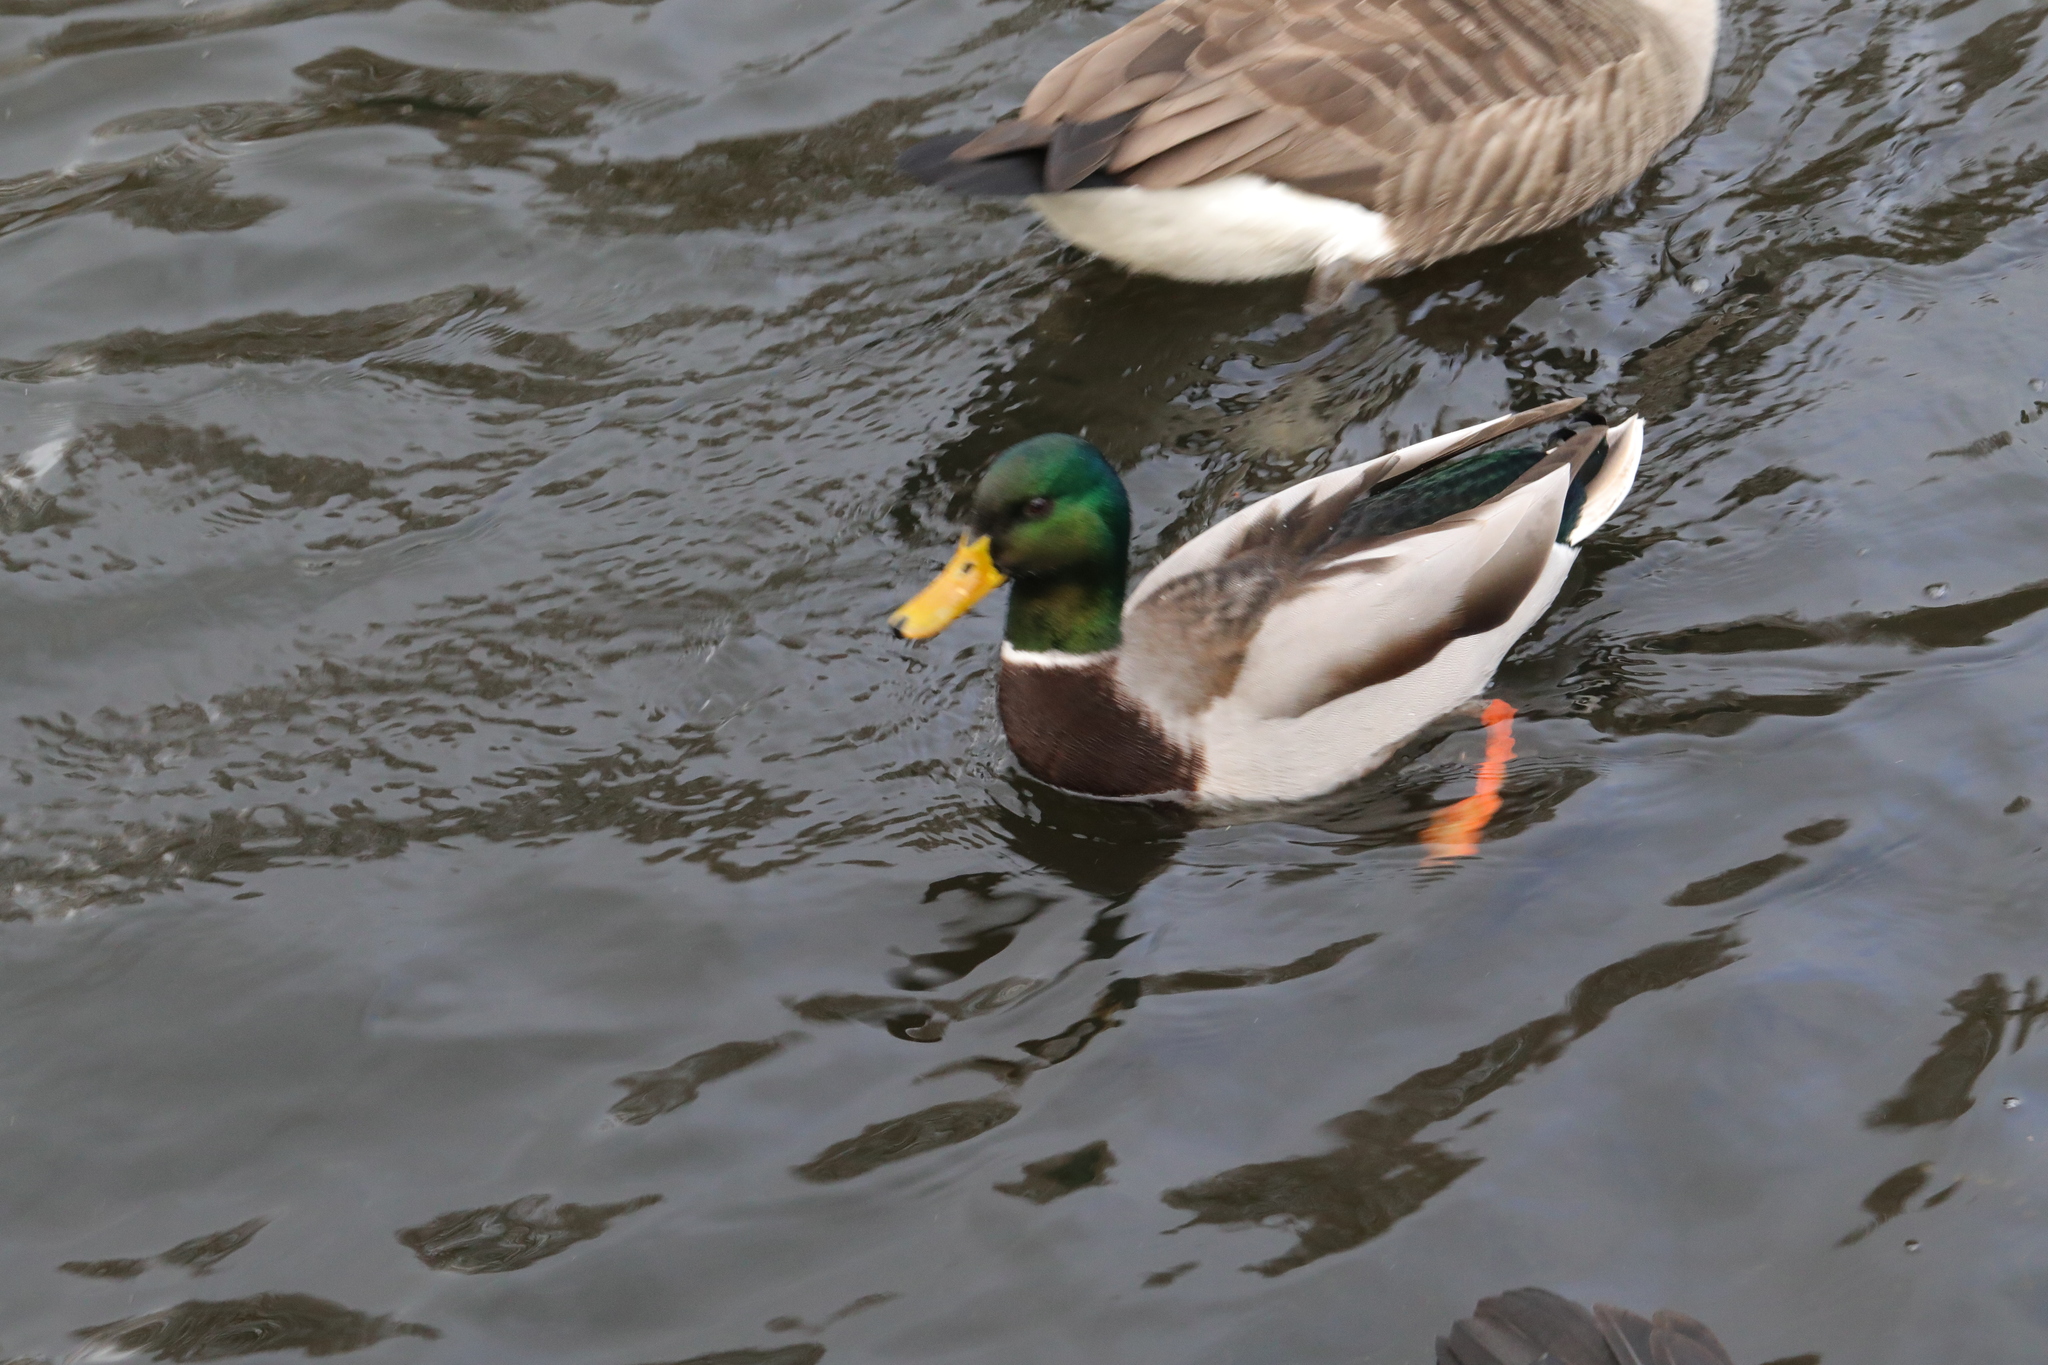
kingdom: Animalia
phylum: Chordata
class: Aves
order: Anseriformes
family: Anatidae
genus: Anas
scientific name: Anas platyrhynchos
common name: Mallard
